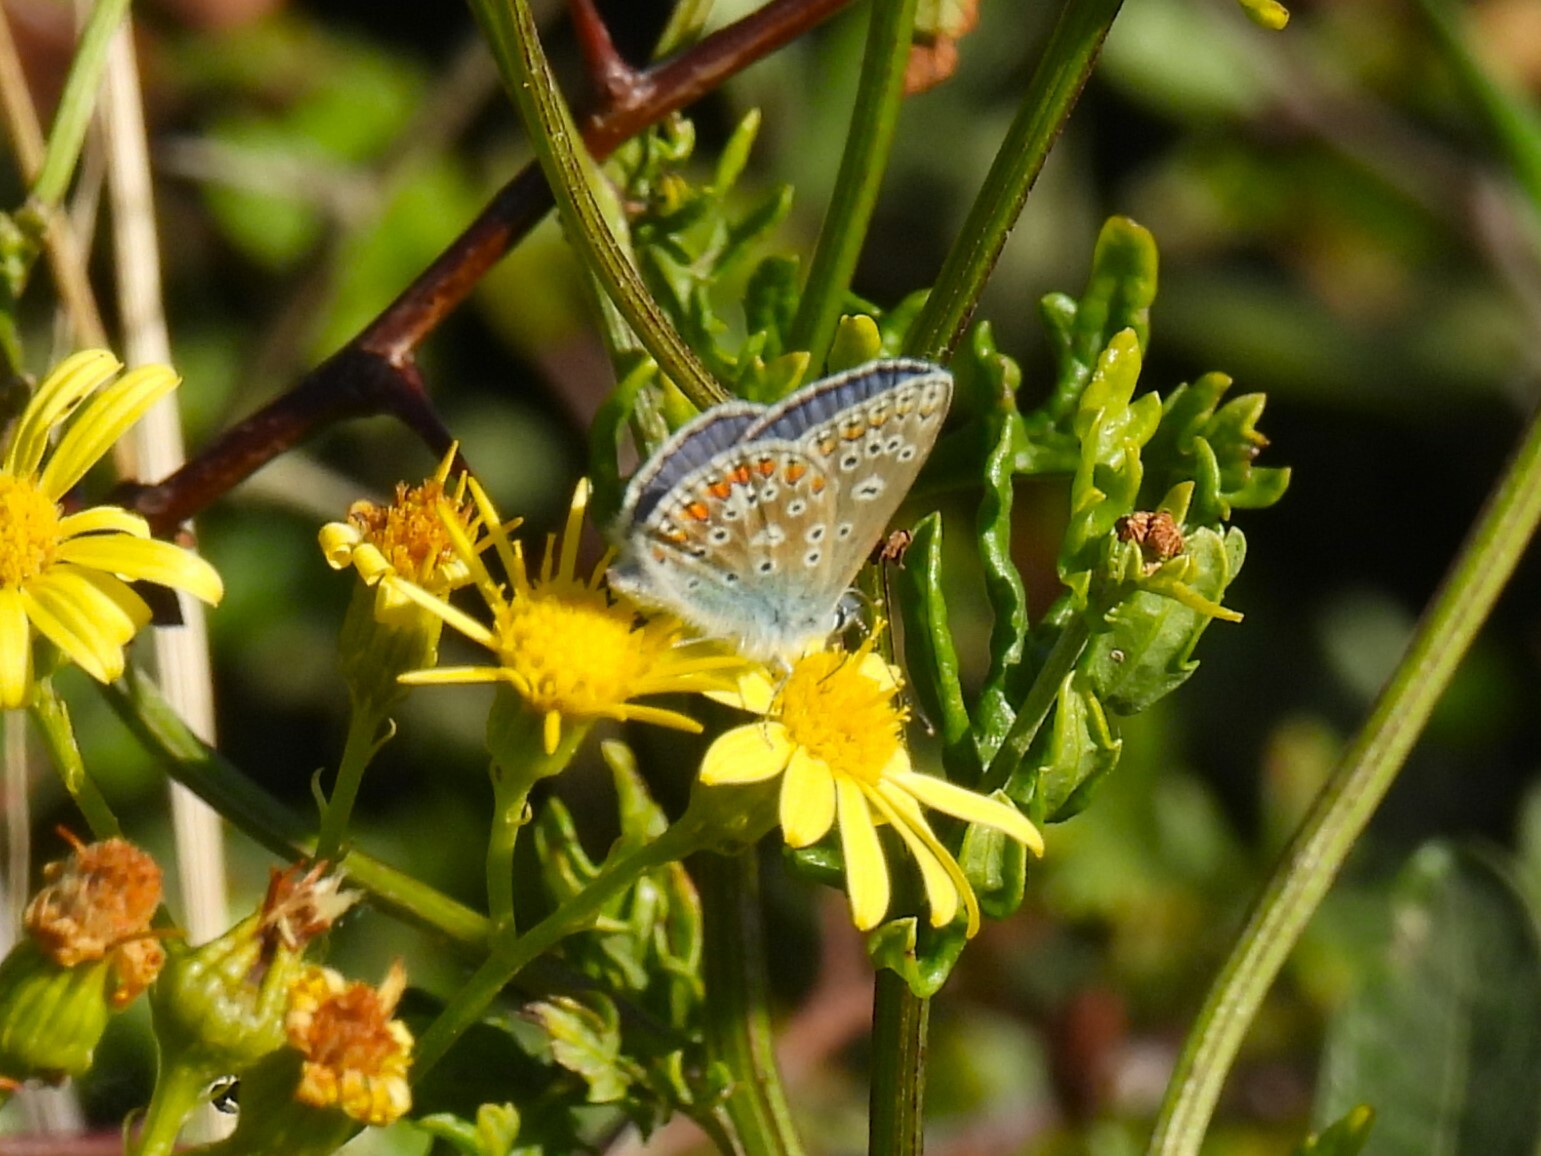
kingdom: Animalia
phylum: Arthropoda
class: Insecta
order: Lepidoptera
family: Lycaenidae
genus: Polyommatus
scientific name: Polyommatus icarus
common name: Common blue
